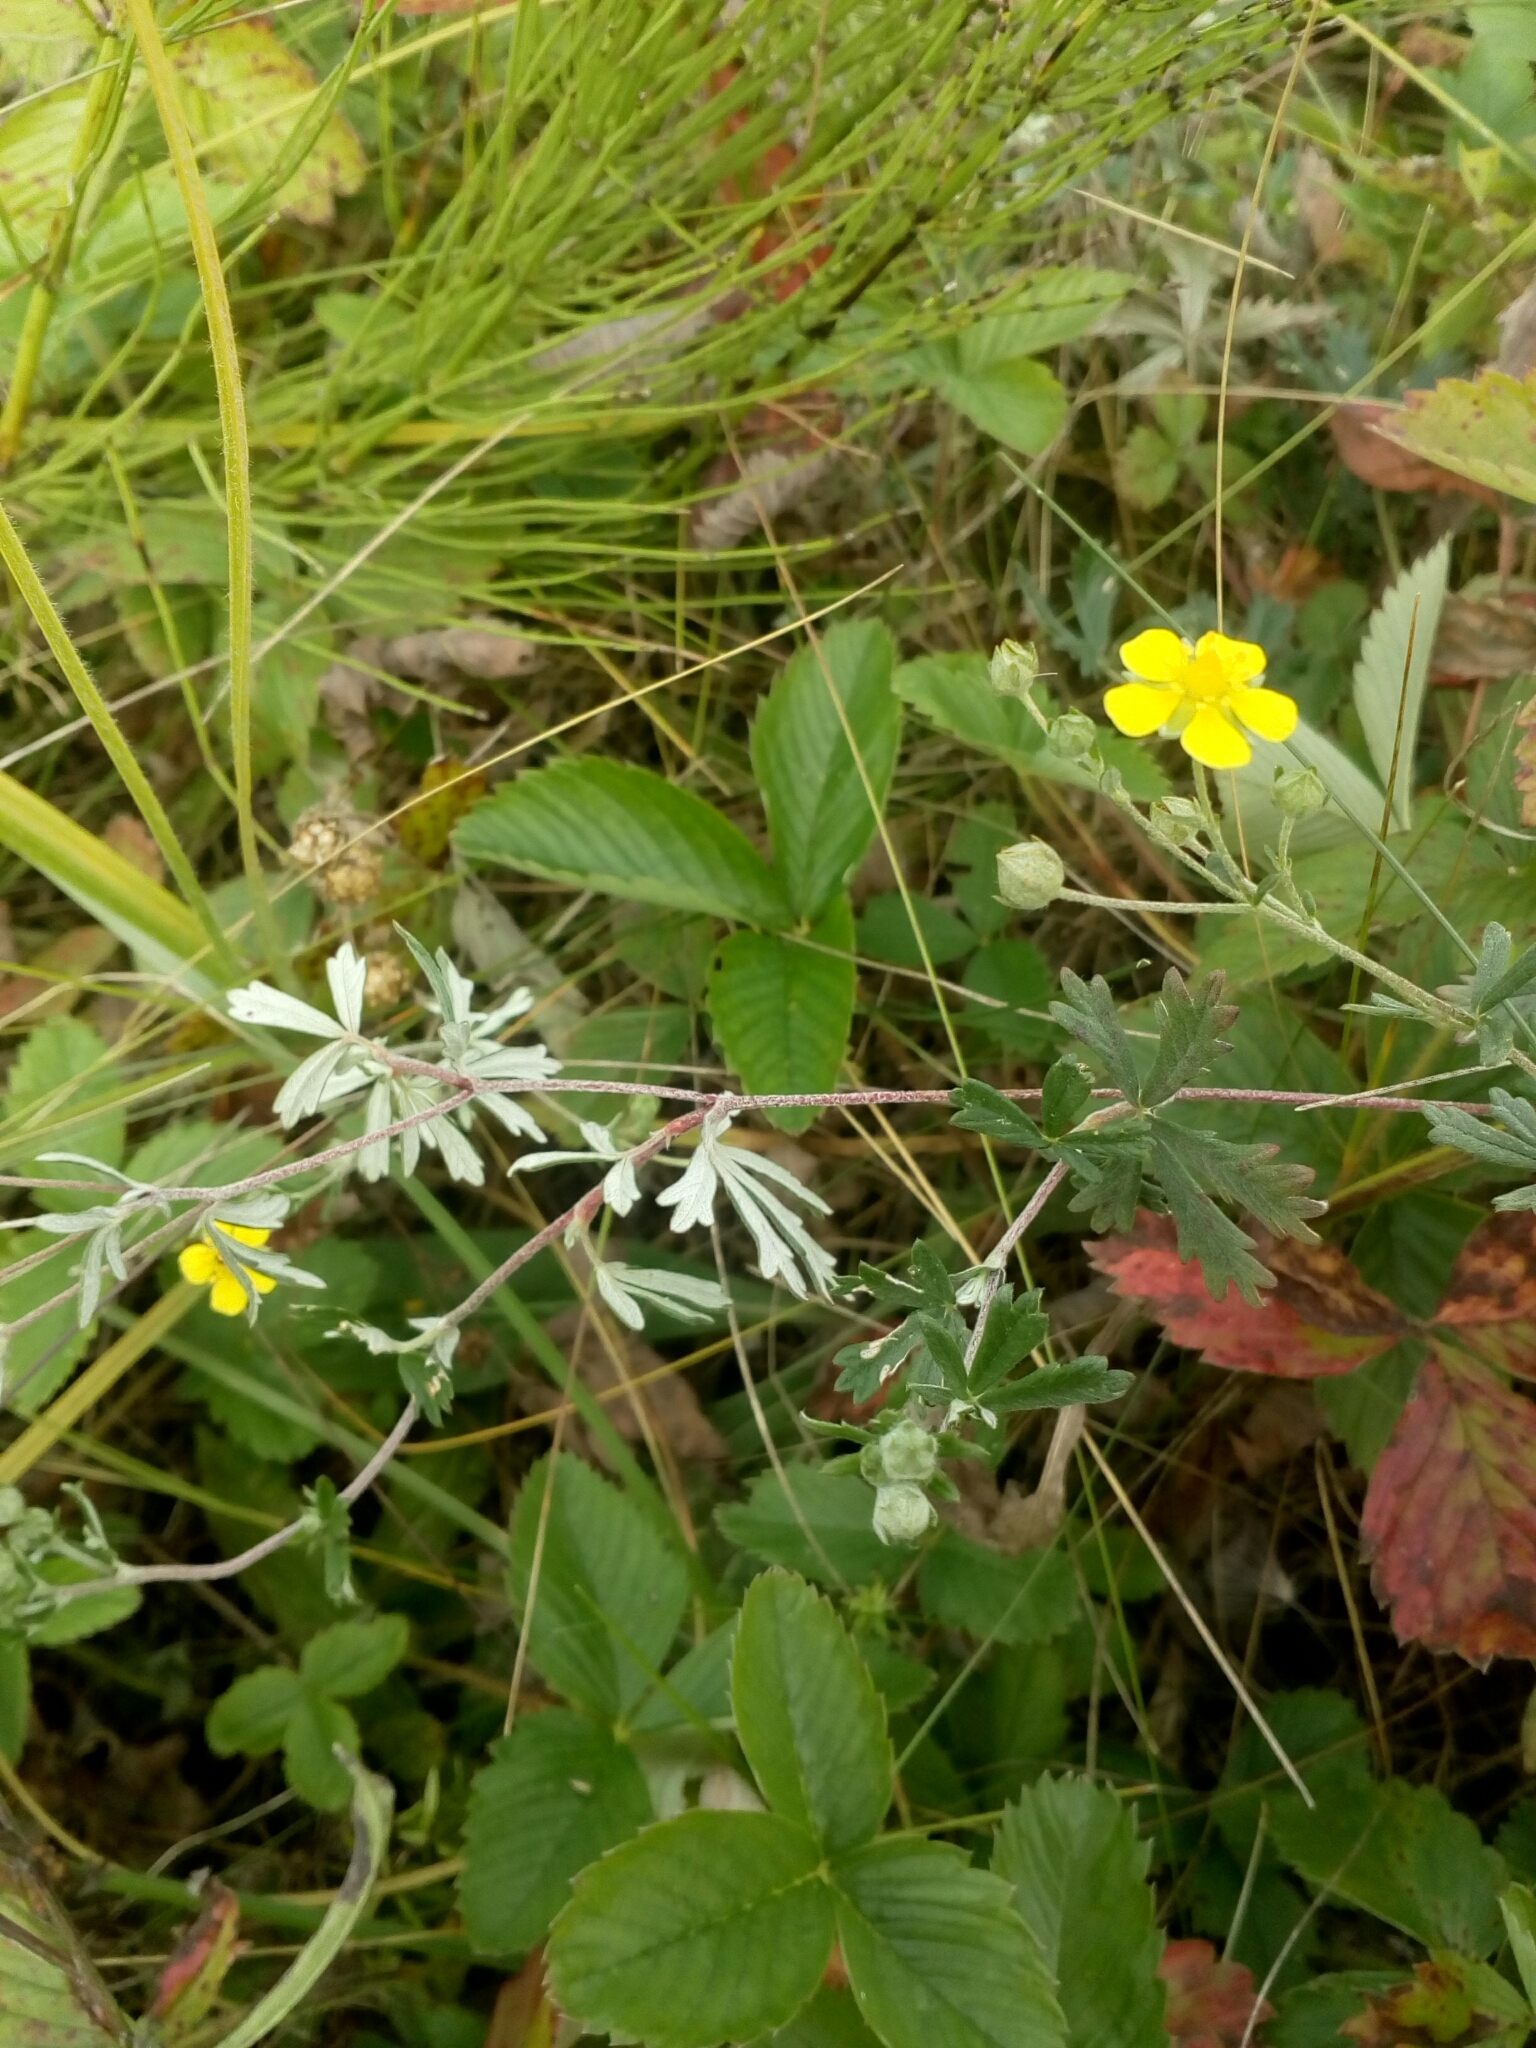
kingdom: Plantae
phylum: Tracheophyta
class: Magnoliopsida
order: Rosales
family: Rosaceae
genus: Potentilla
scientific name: Potentilla argentea
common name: Hoary cinquefoil
